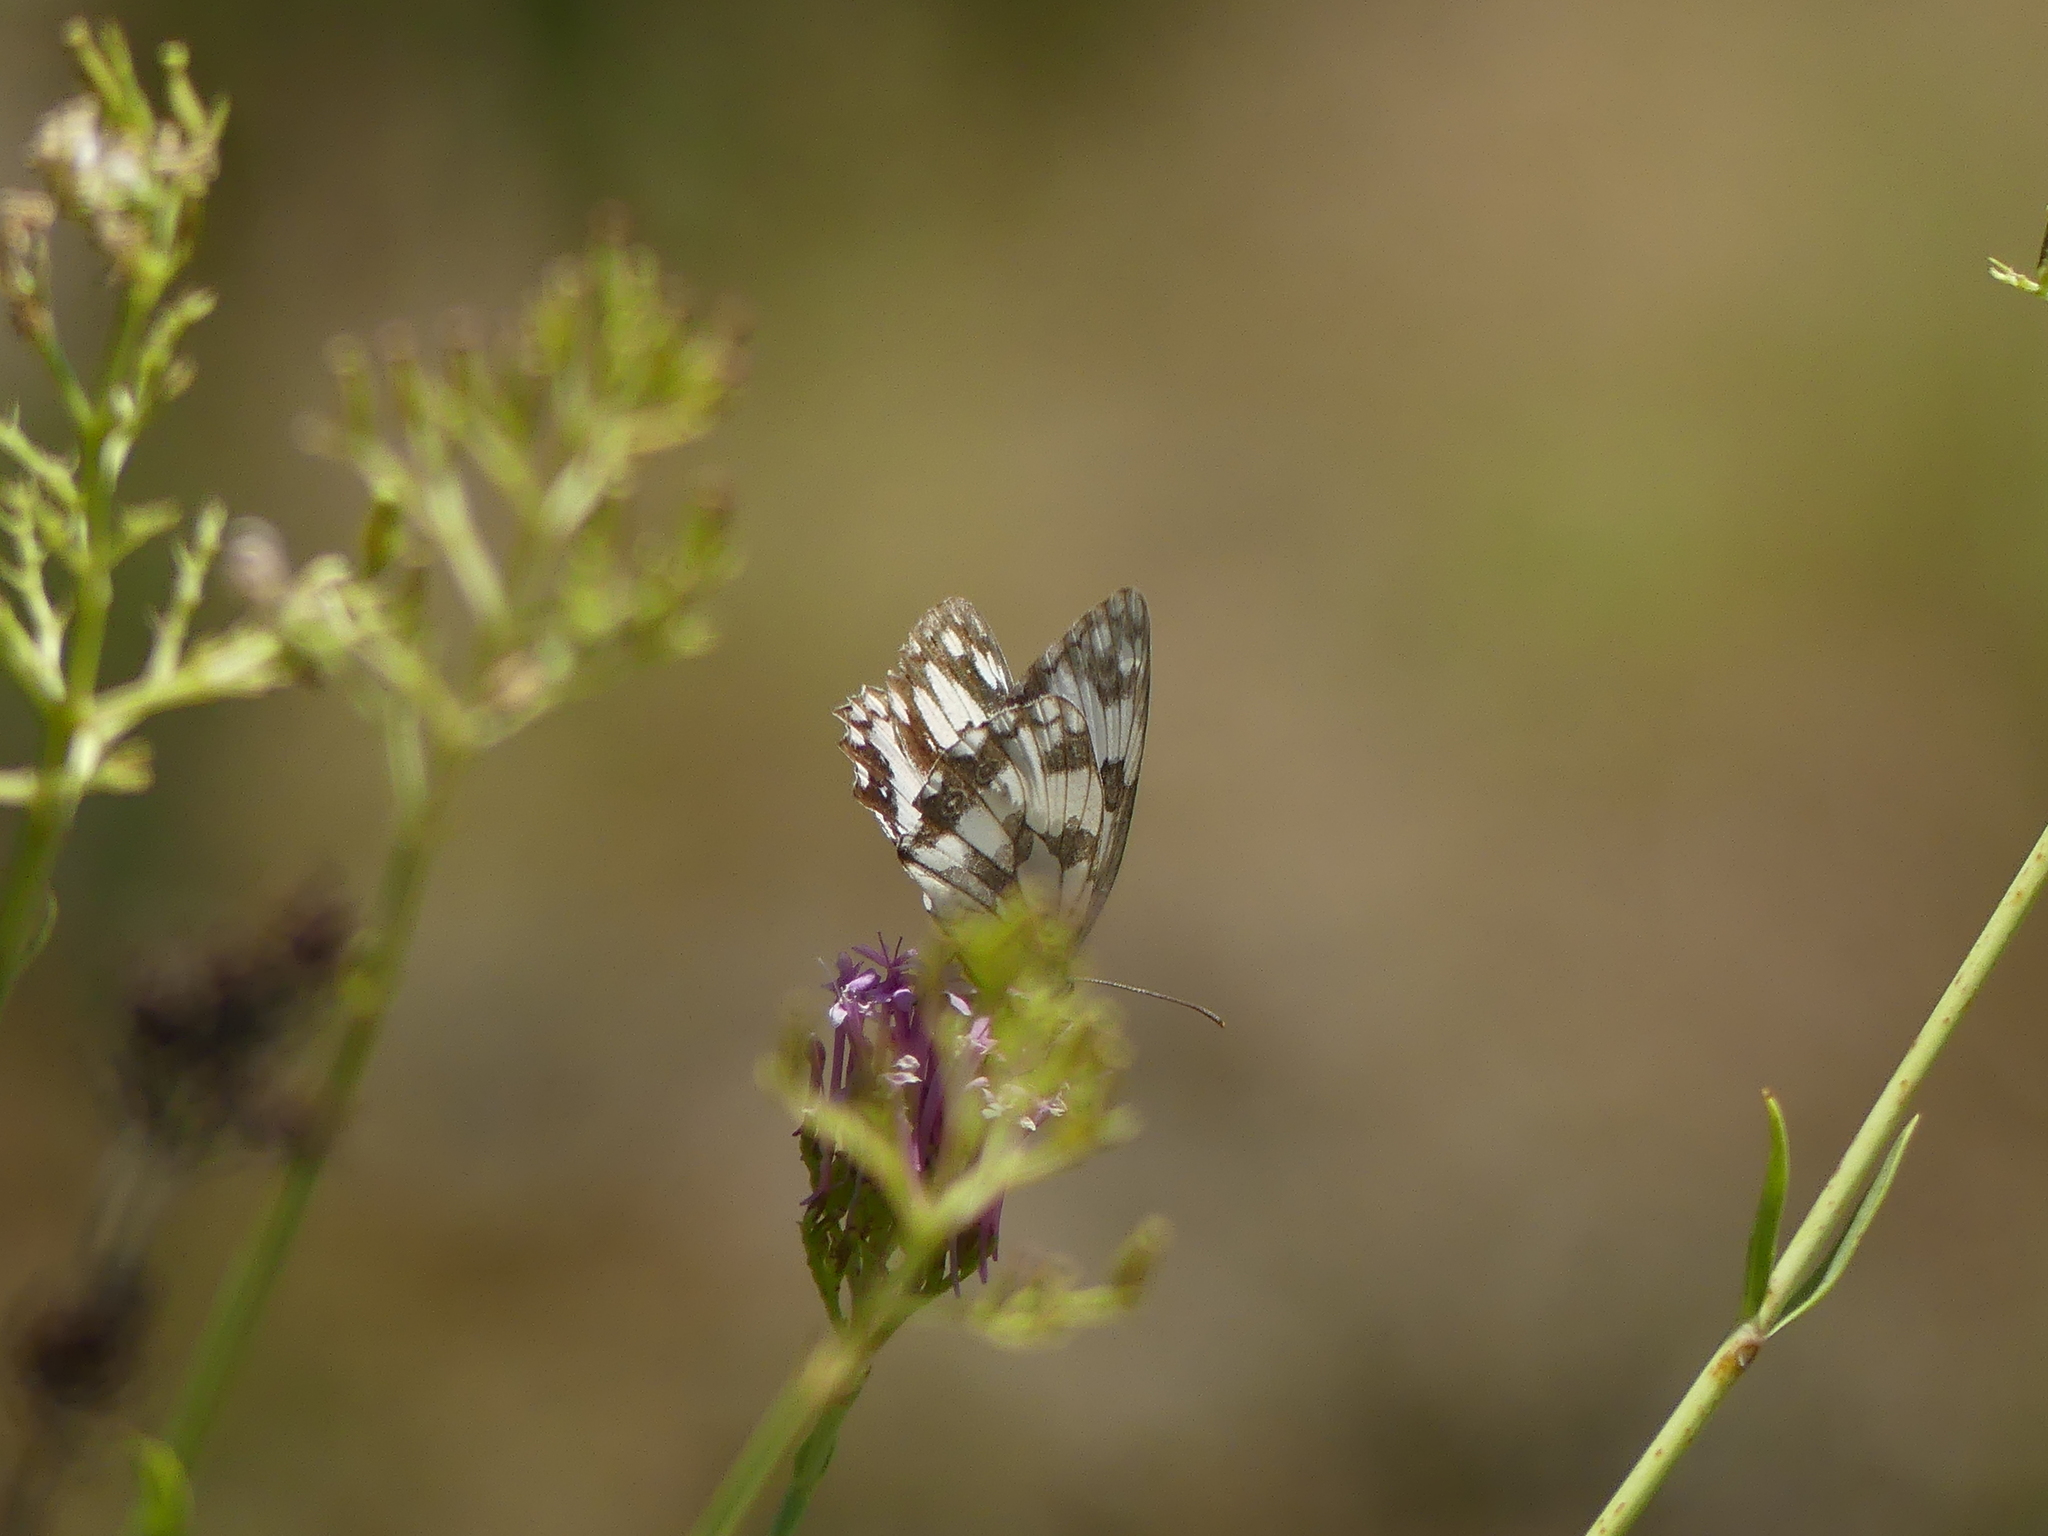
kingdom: Animalia
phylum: Arthropoda
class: Insecta
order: Lepidoptera
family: Nymphalidae
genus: Melanargia
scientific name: Melanargia lachesis
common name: Iberian marbled white
